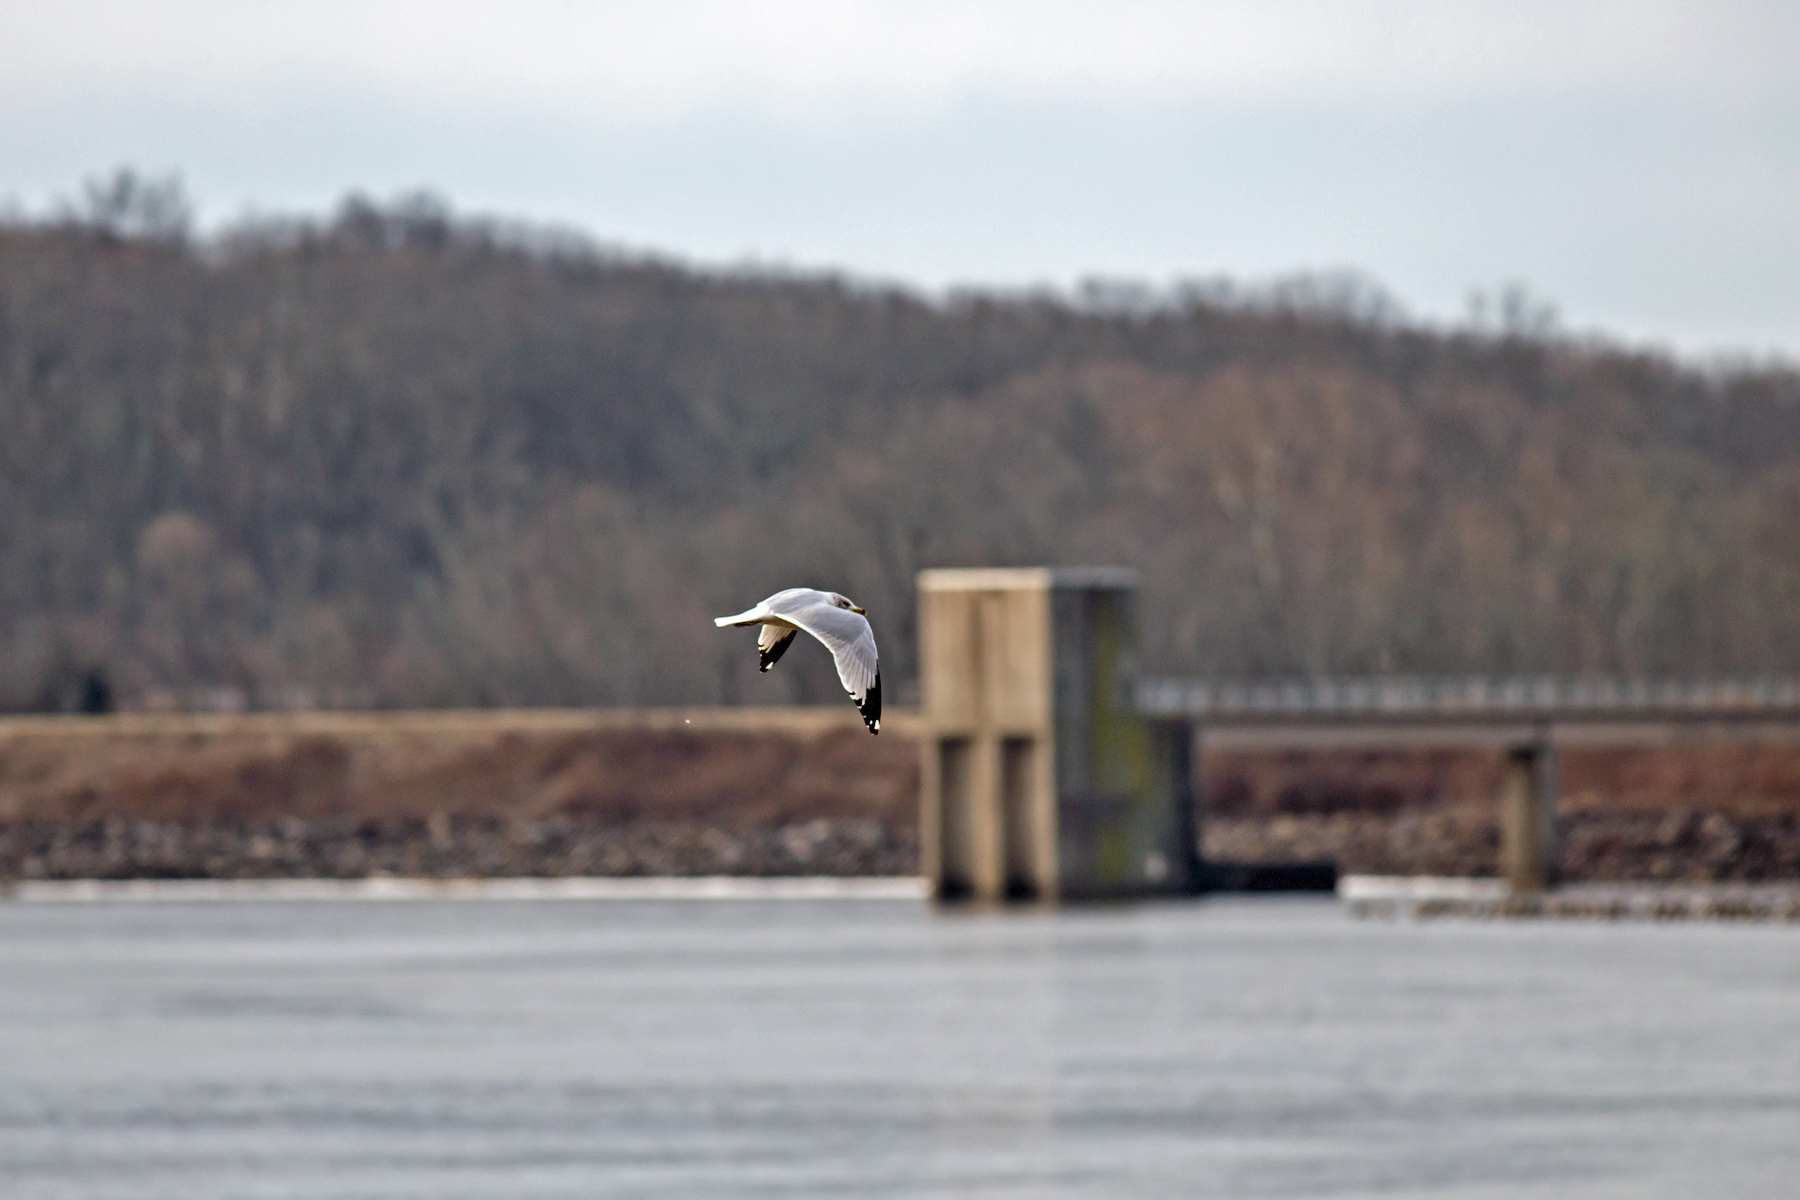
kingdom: Animalia
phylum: Chordata
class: Aves
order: Charadriiformes
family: Laridae
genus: Larus
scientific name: Larus delawarensis
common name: Ring-billed gull
